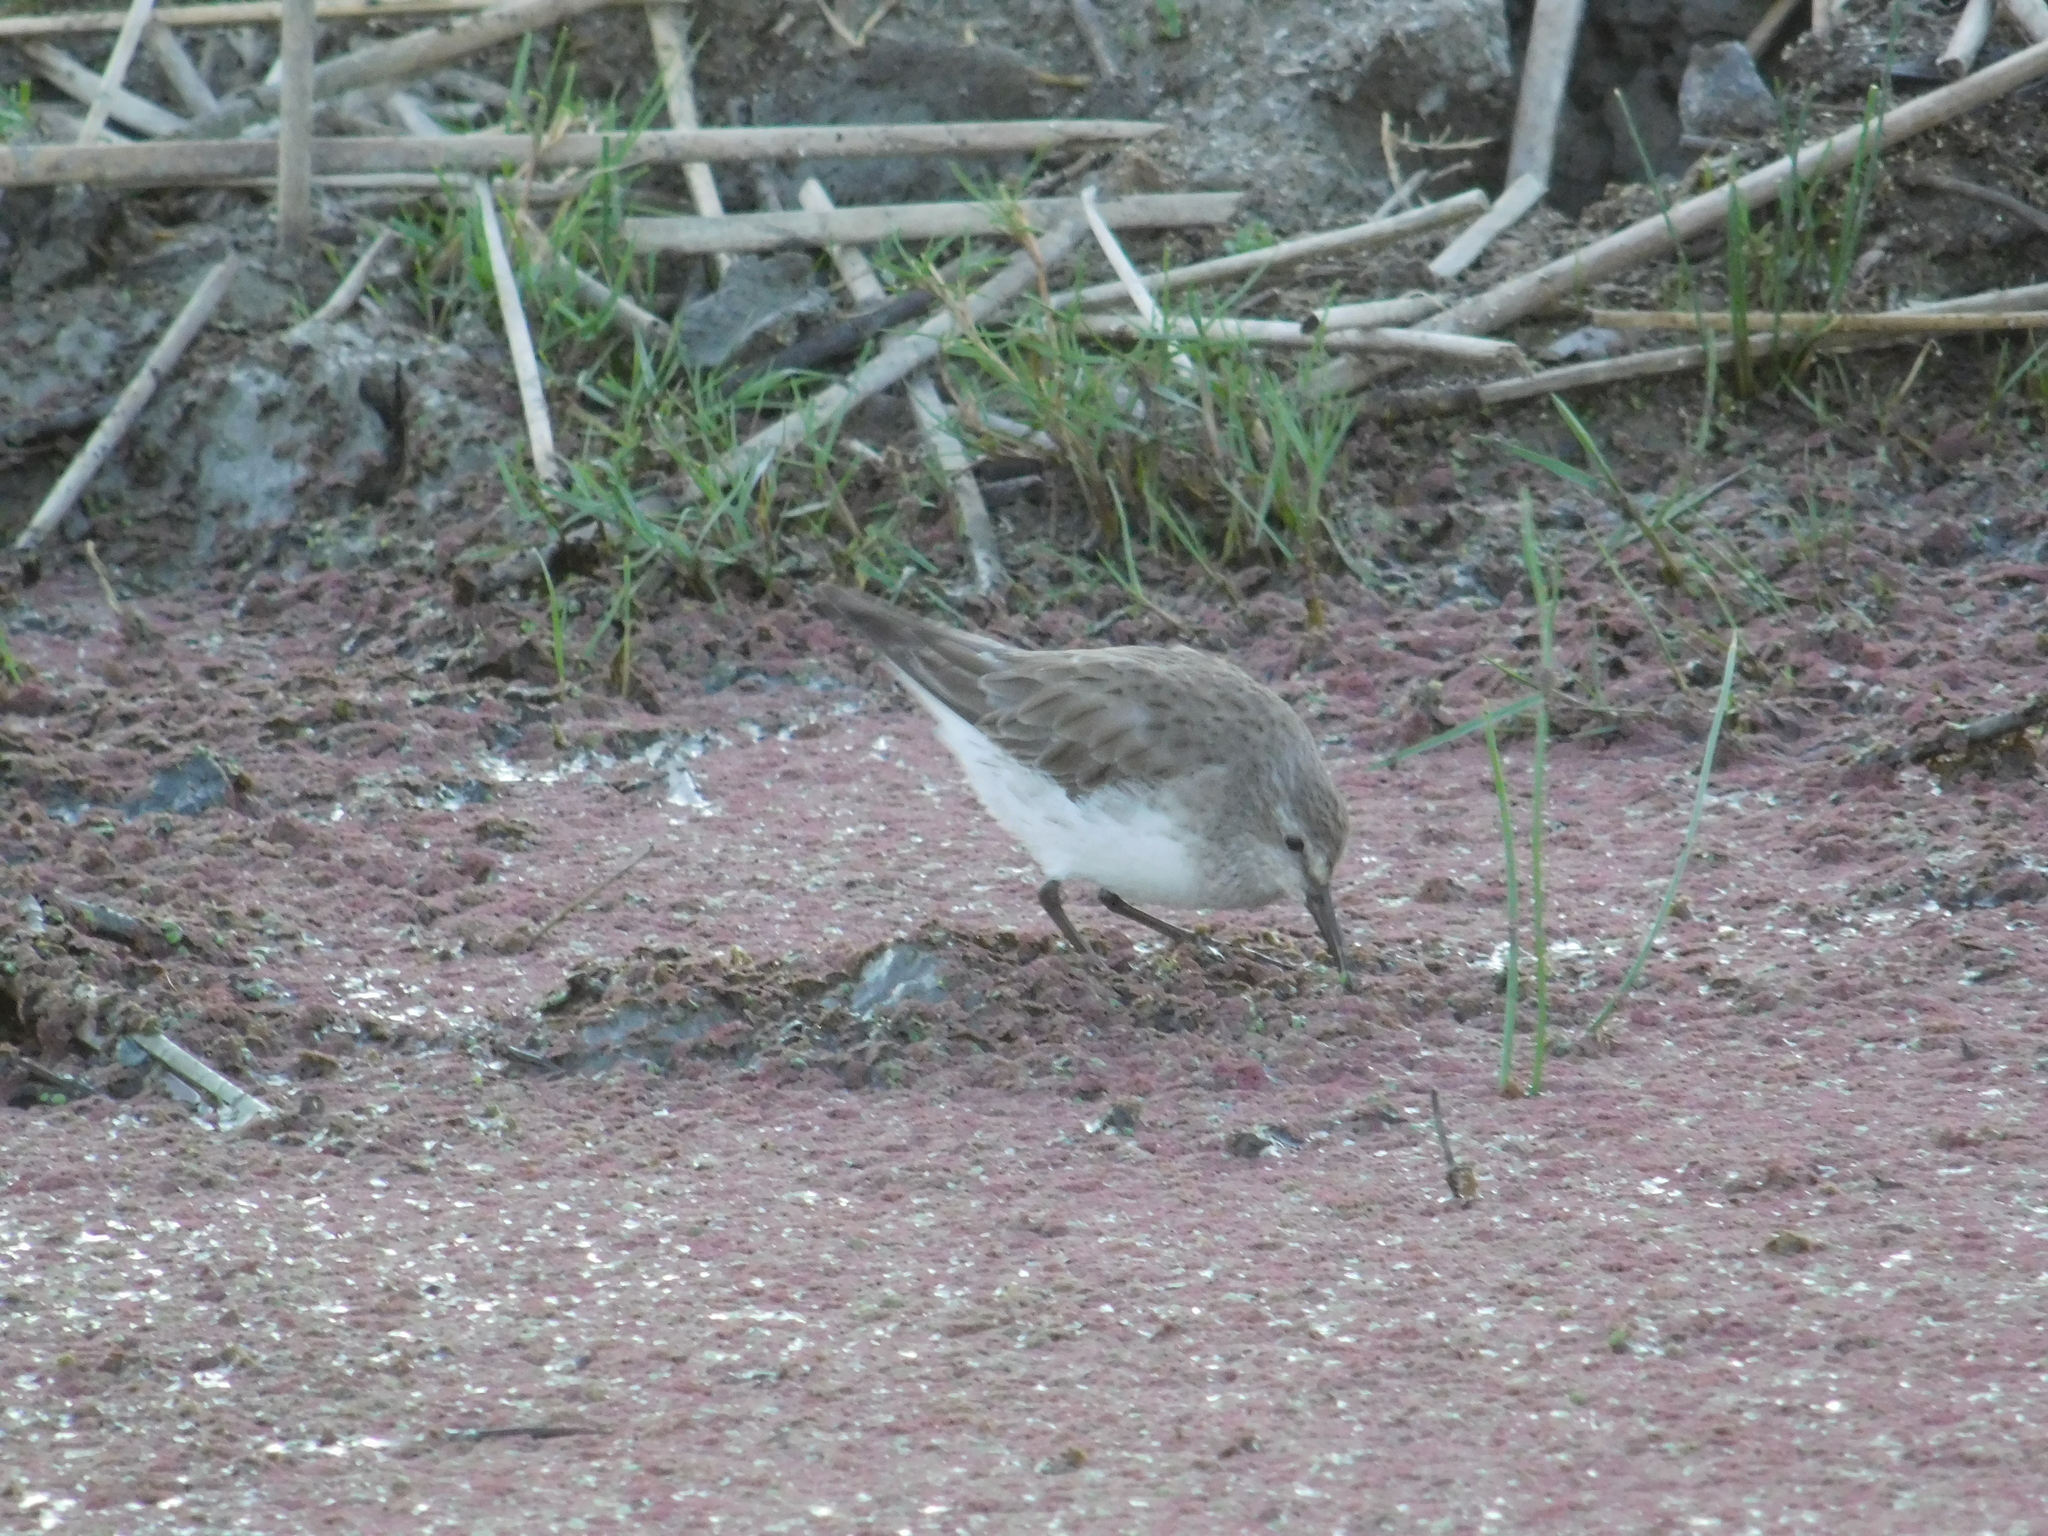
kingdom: Animalia
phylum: Chordata
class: Aves
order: Charadriiformes
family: Scolopacidae
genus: Calidris
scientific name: Calidris fuscicollis
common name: White-rumped sandpiper
